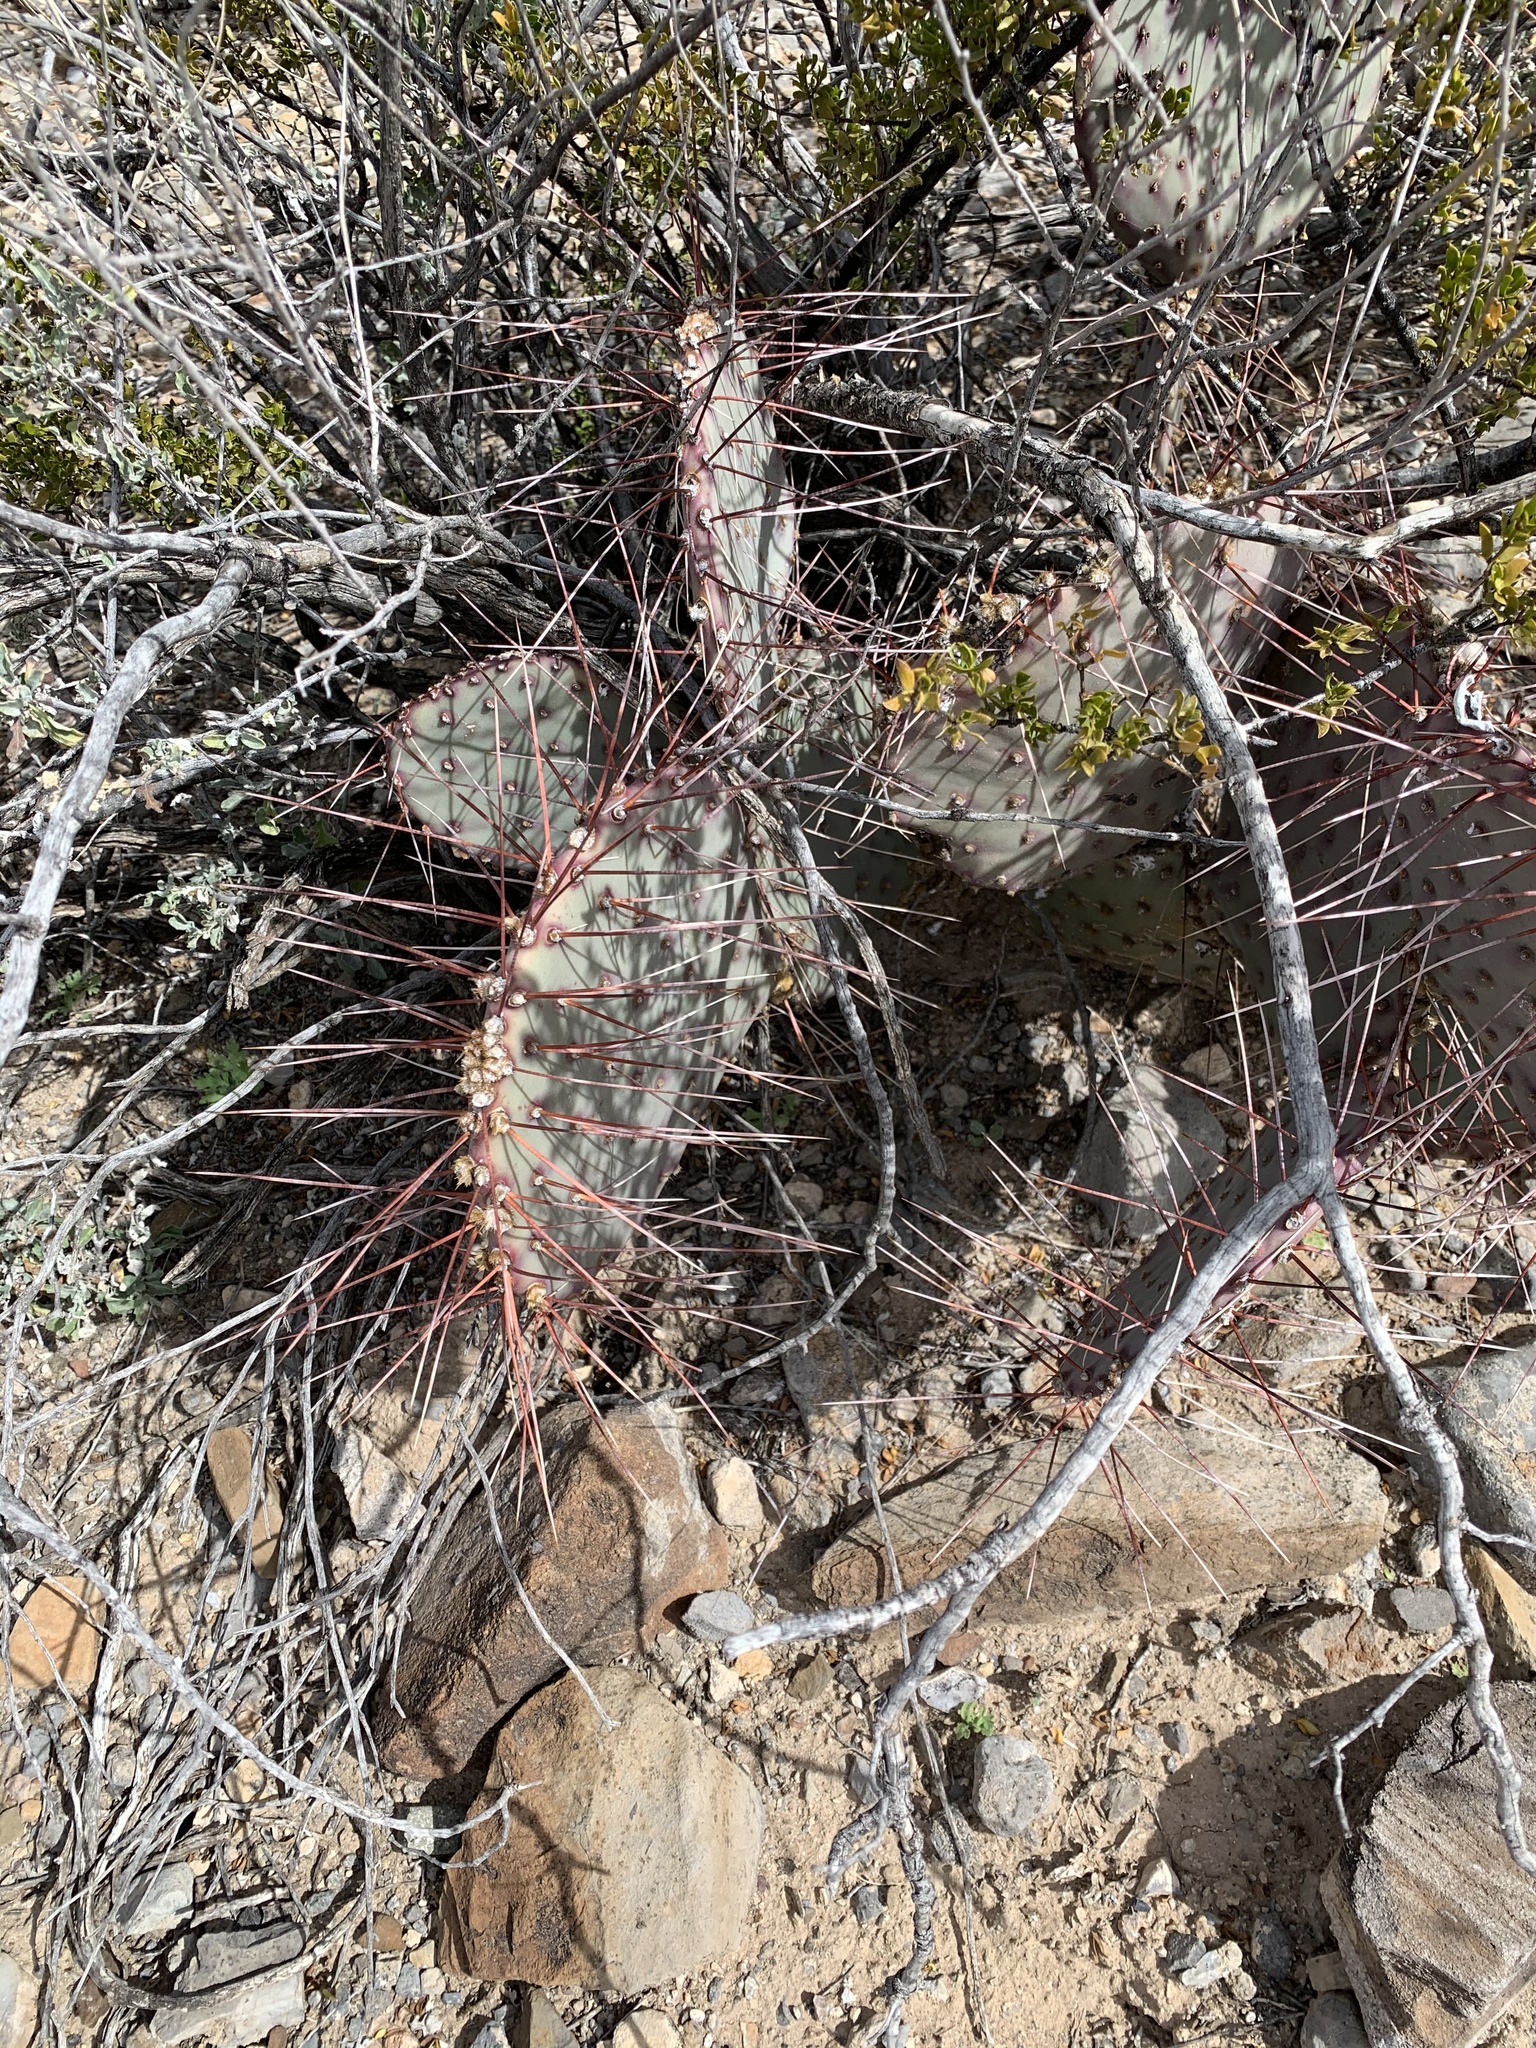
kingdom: Plantae
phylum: Tracheophyta
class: Magnoliopsida
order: Caryophyllales
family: Cactaceae
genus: Opuntia
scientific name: Opuntia macrocentra
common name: Purple prickly-pear
